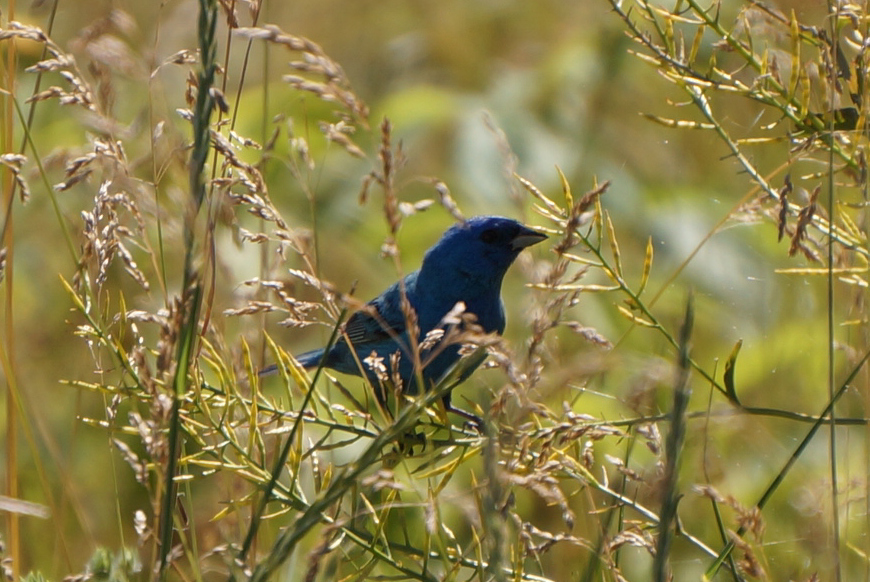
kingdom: Animalia
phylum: Chordata
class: Aves
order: Passeriformes
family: Cardinalidae
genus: Passerina
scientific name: Passerina cyanea
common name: Indigo bunting
